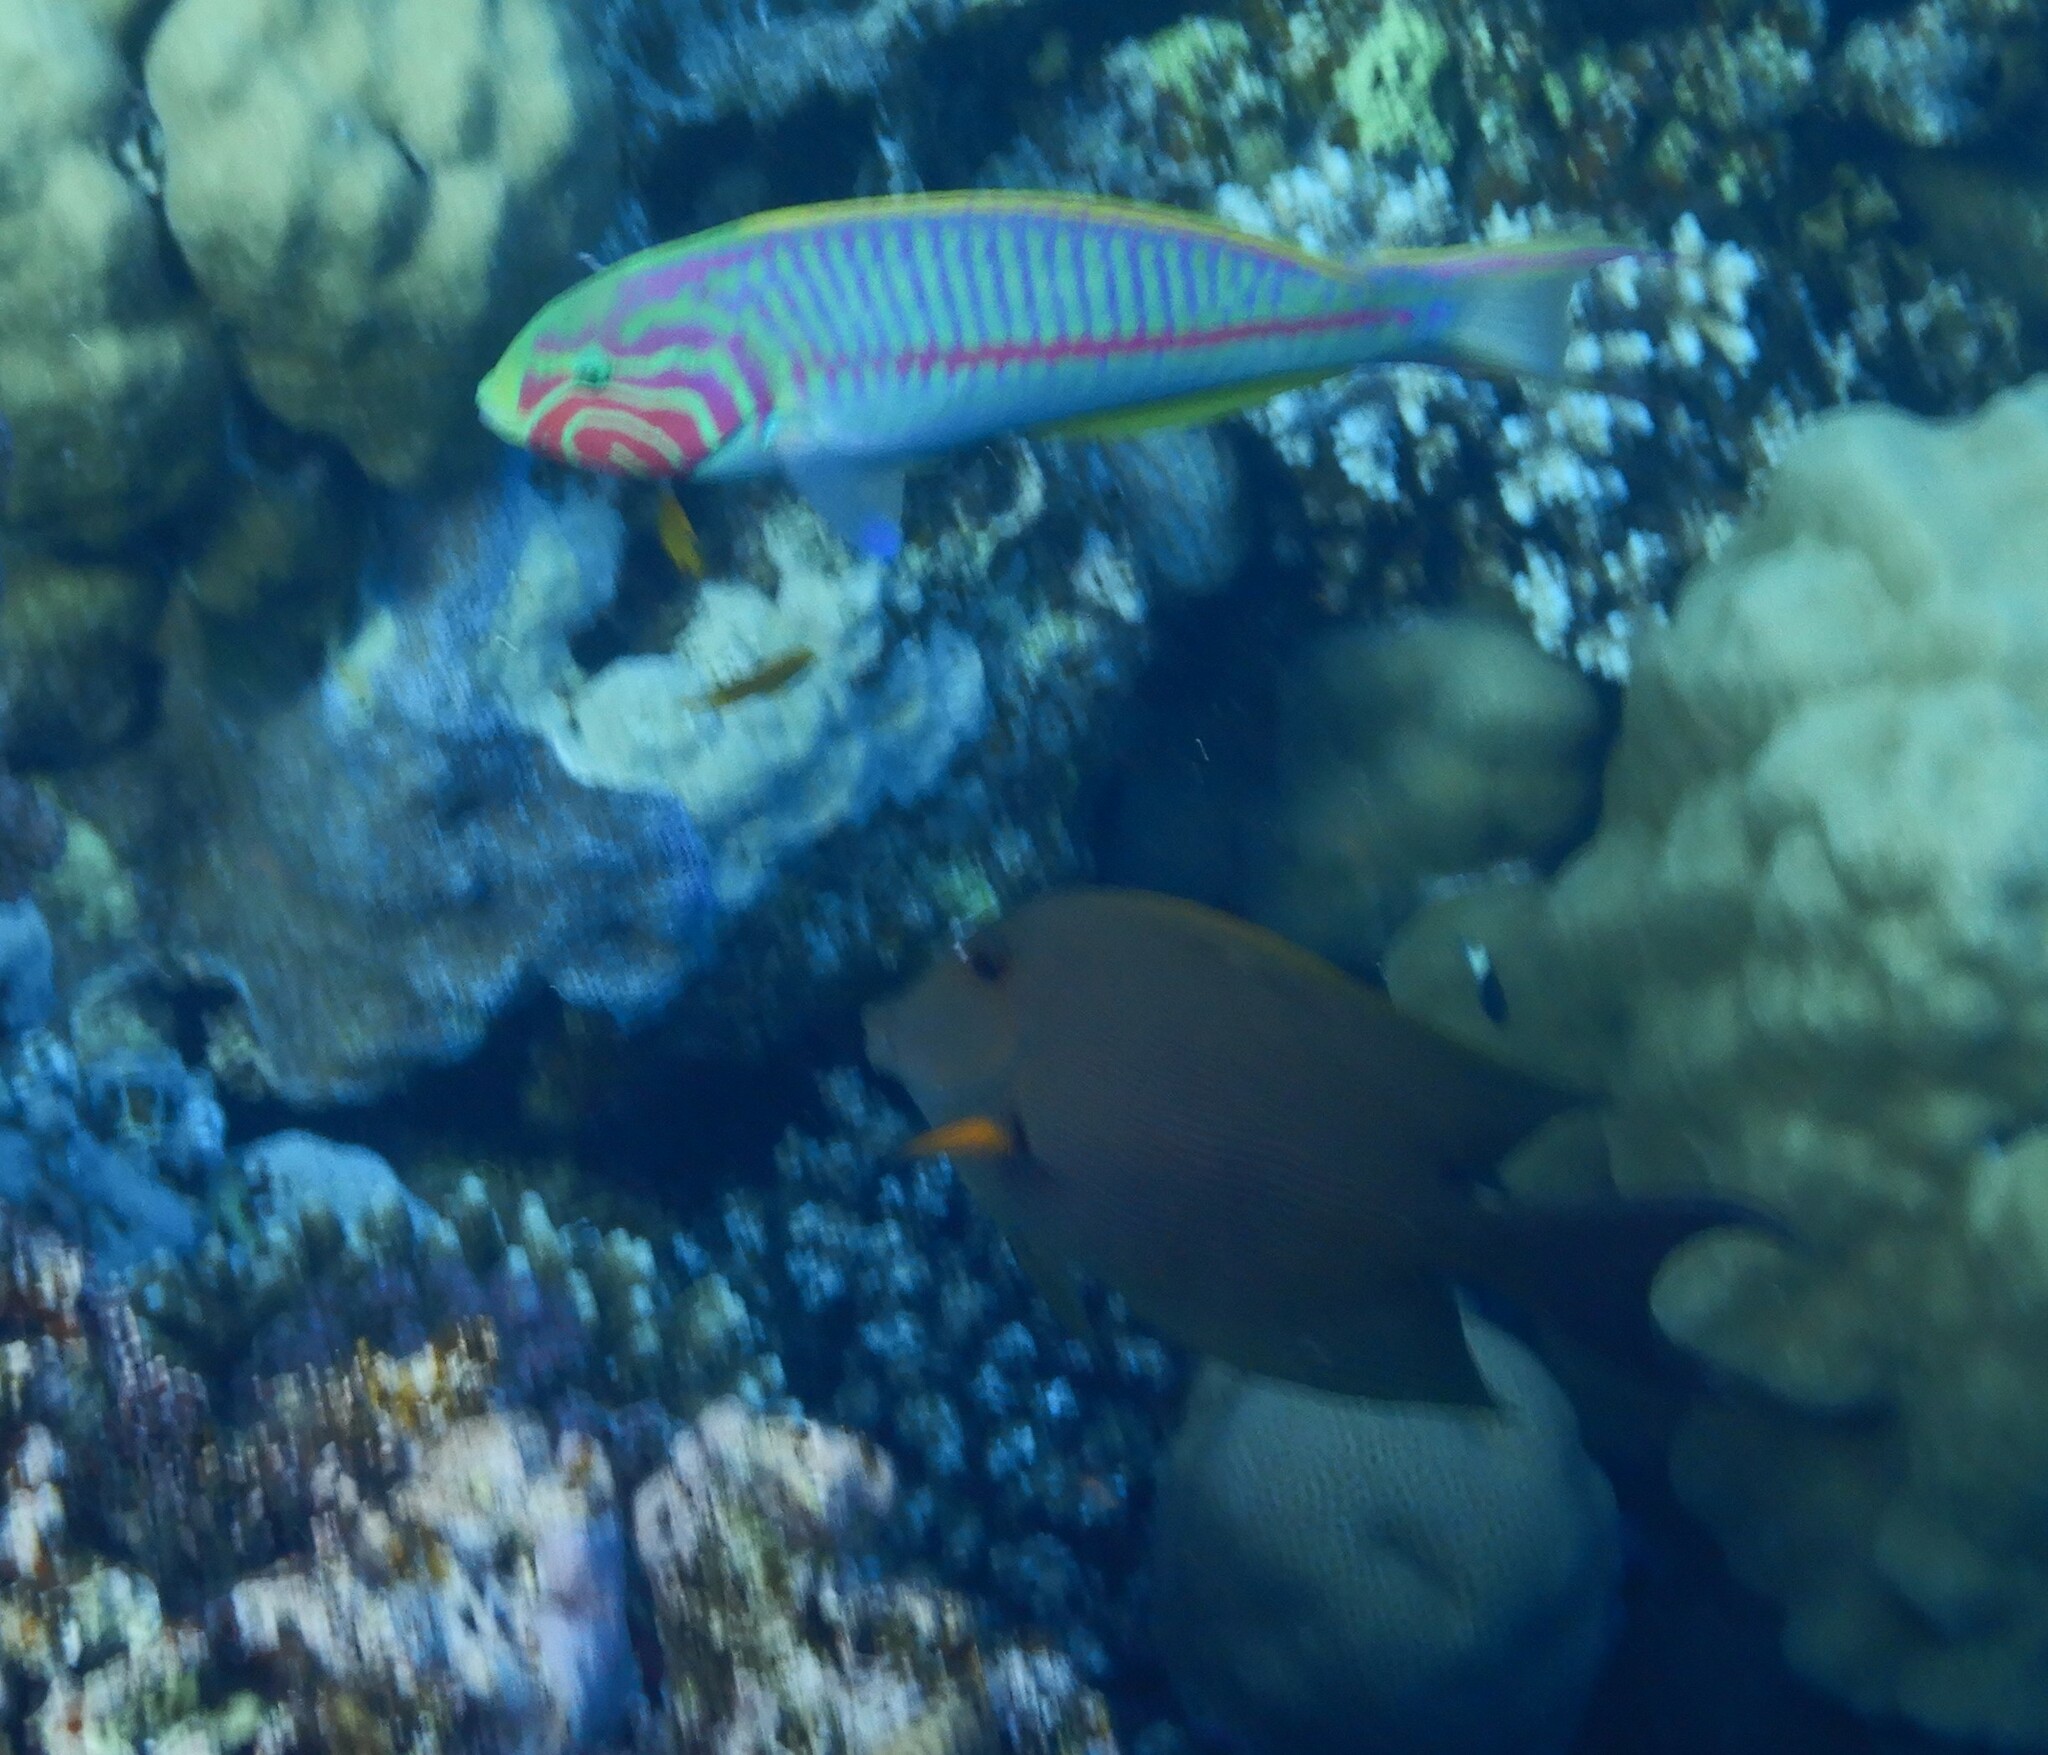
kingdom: Animalia
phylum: Chordata
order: Perciformes
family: Labridae
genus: Thalassoma
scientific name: Thalassoma rueppellii
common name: Klunzinger's wrasse
